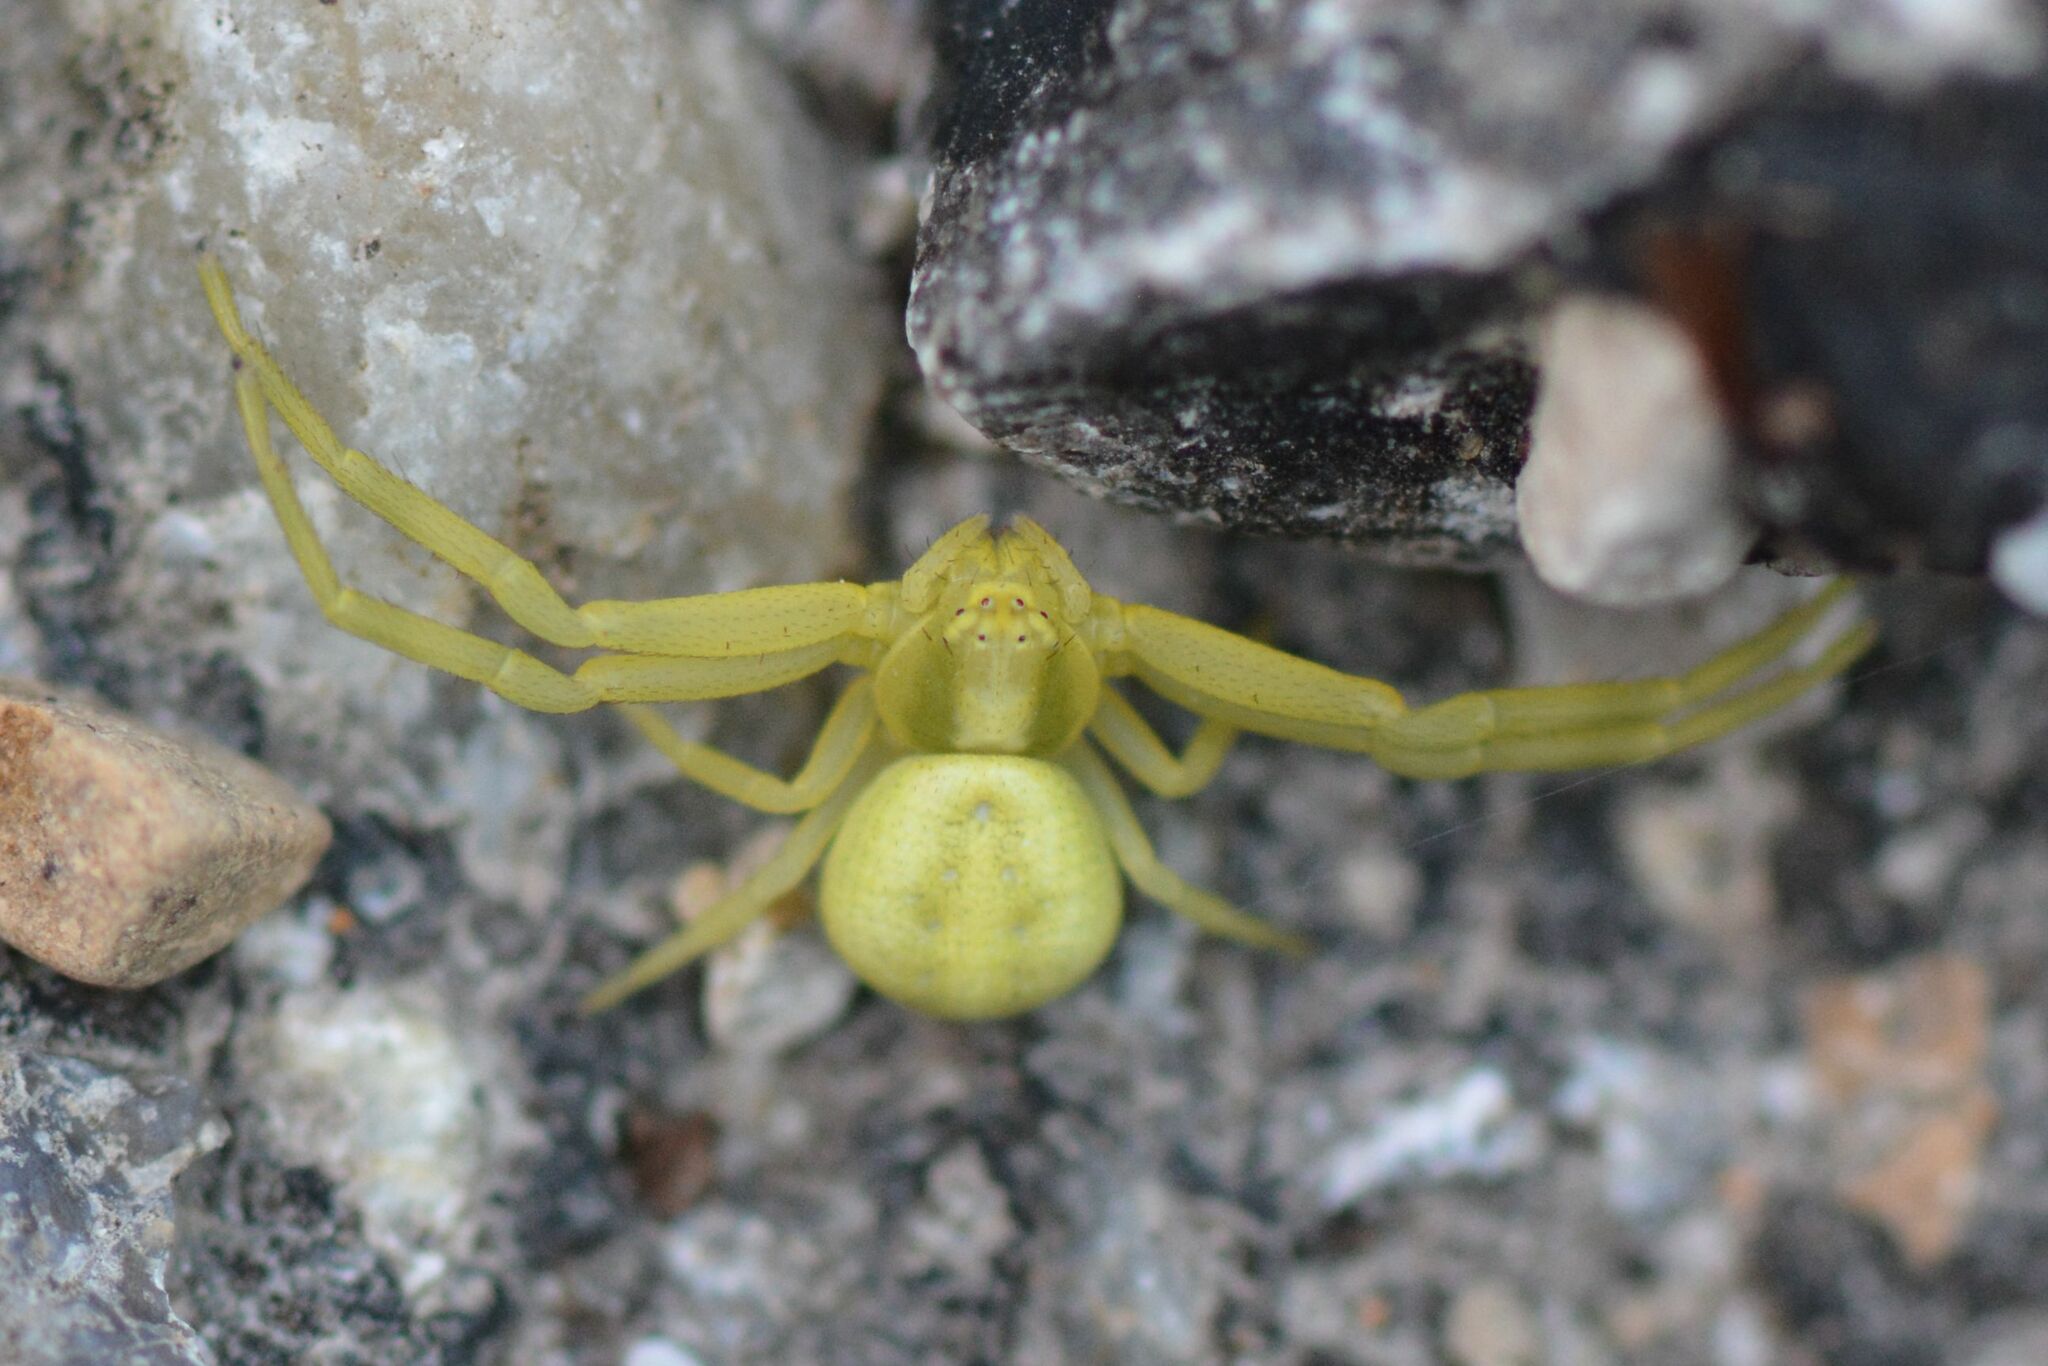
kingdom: Animalia
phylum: Arthropoda
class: Arachnida
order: Araneae
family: Thomisidae
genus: Misumena
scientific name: Misumena vatia
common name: Goldenrod crab spider
